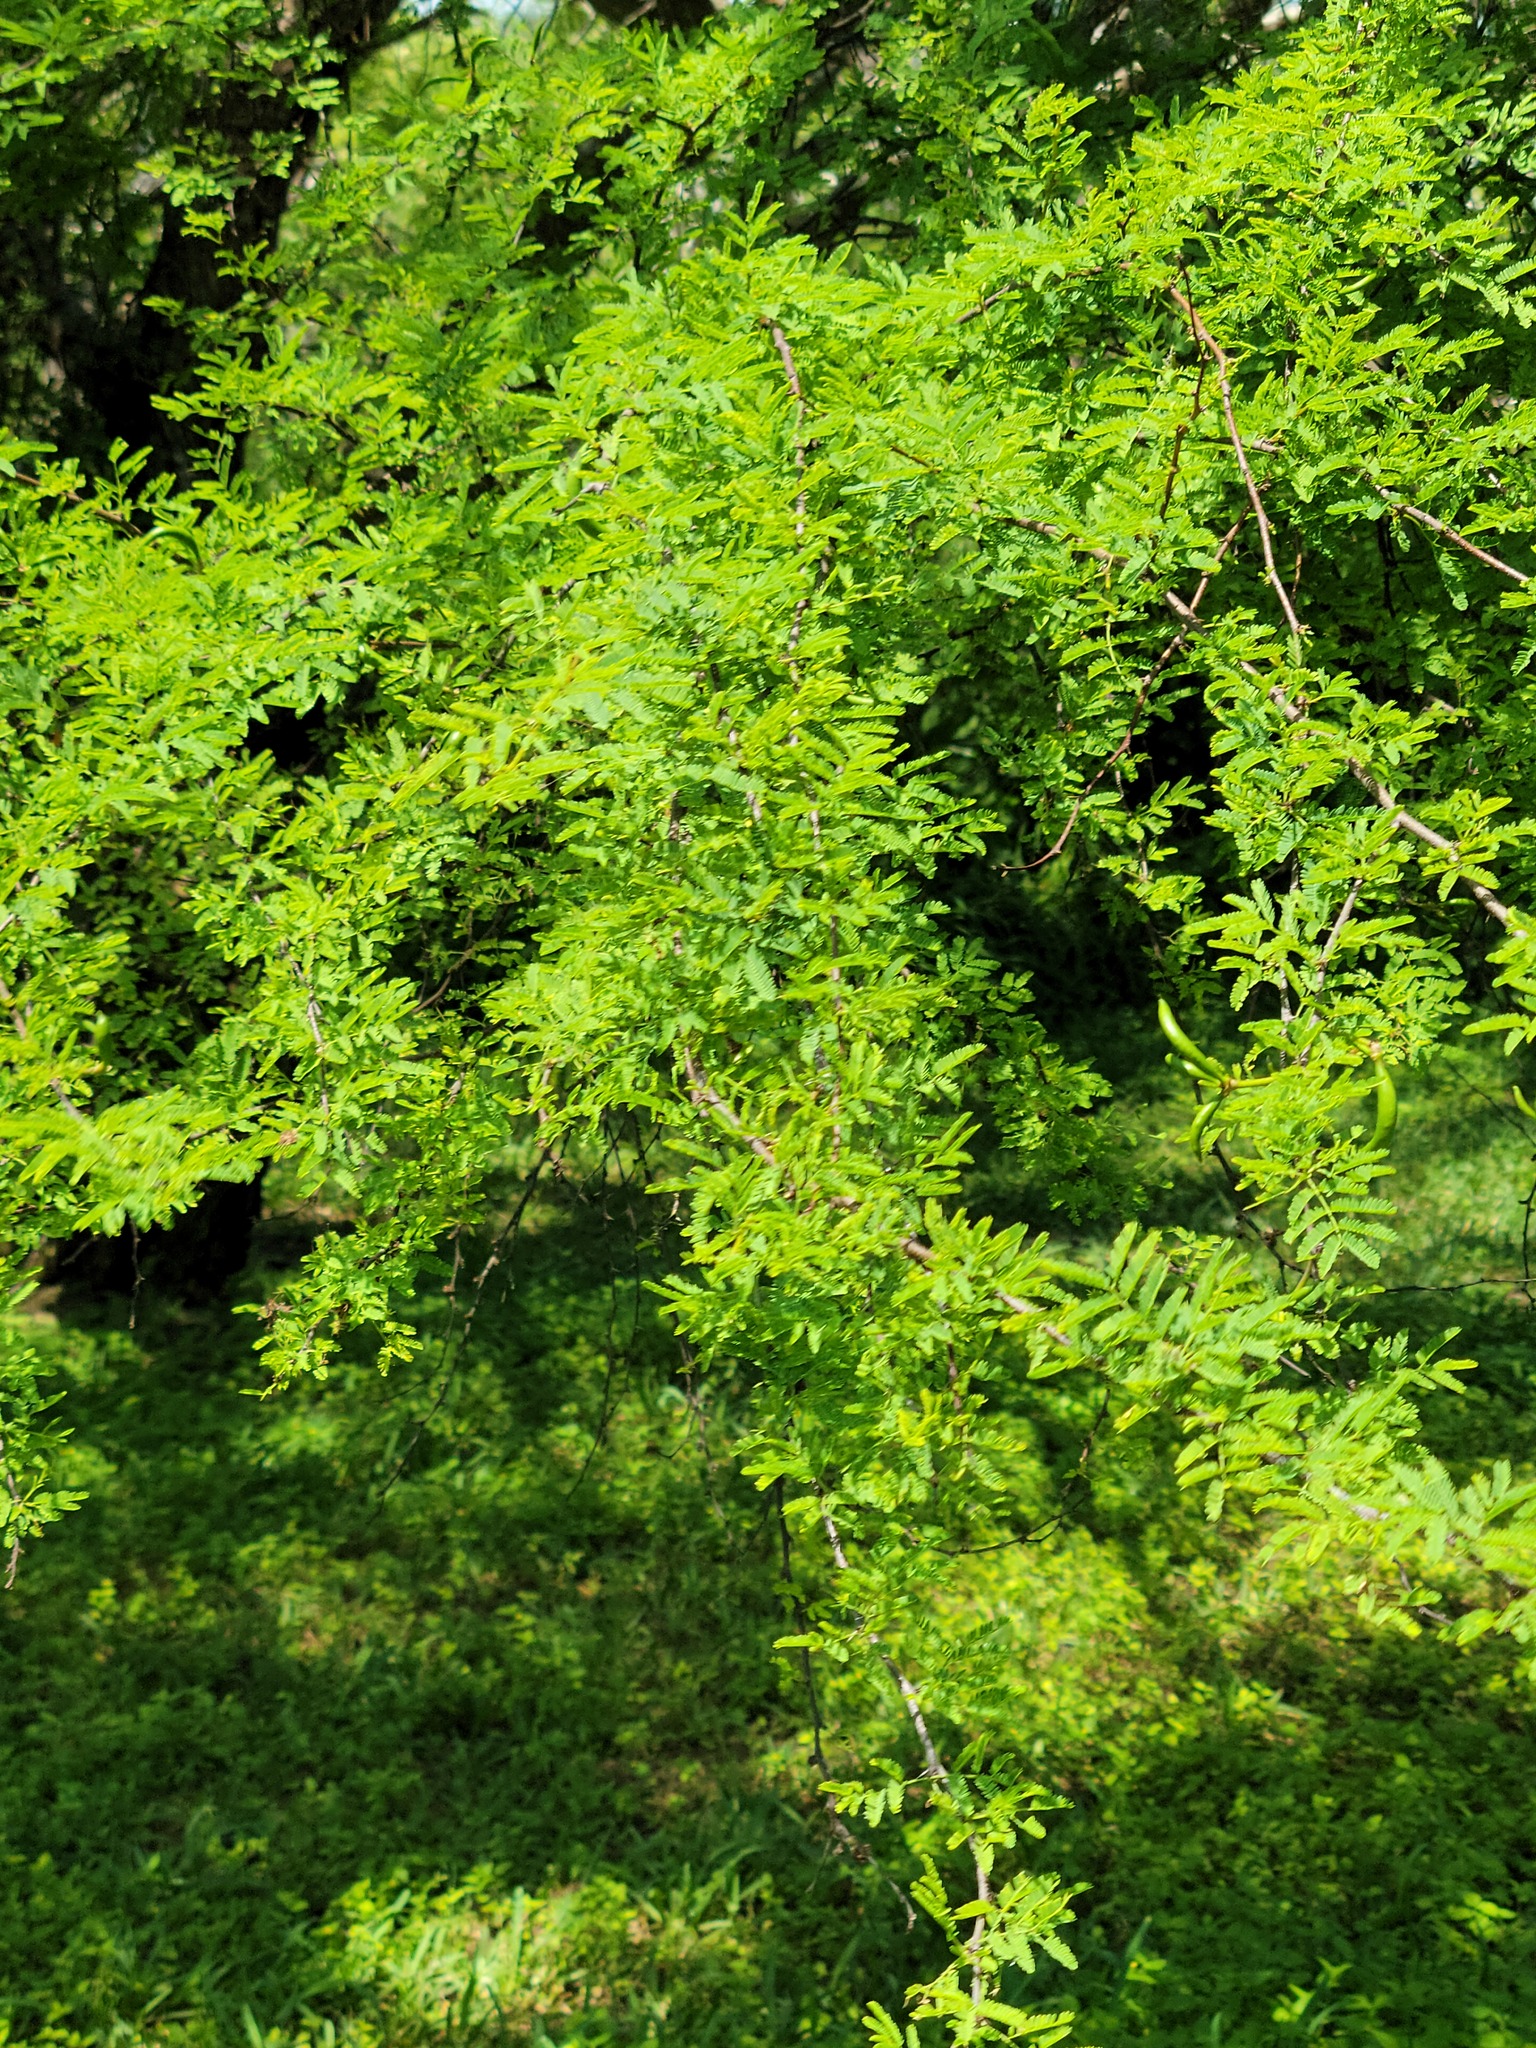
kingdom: Plantae
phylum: Tracheophyta
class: Magnoliopsida
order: Fabales
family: Fabaceae
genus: Vachellia
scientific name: Vachellia farnesiana
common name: Sweet acacia
